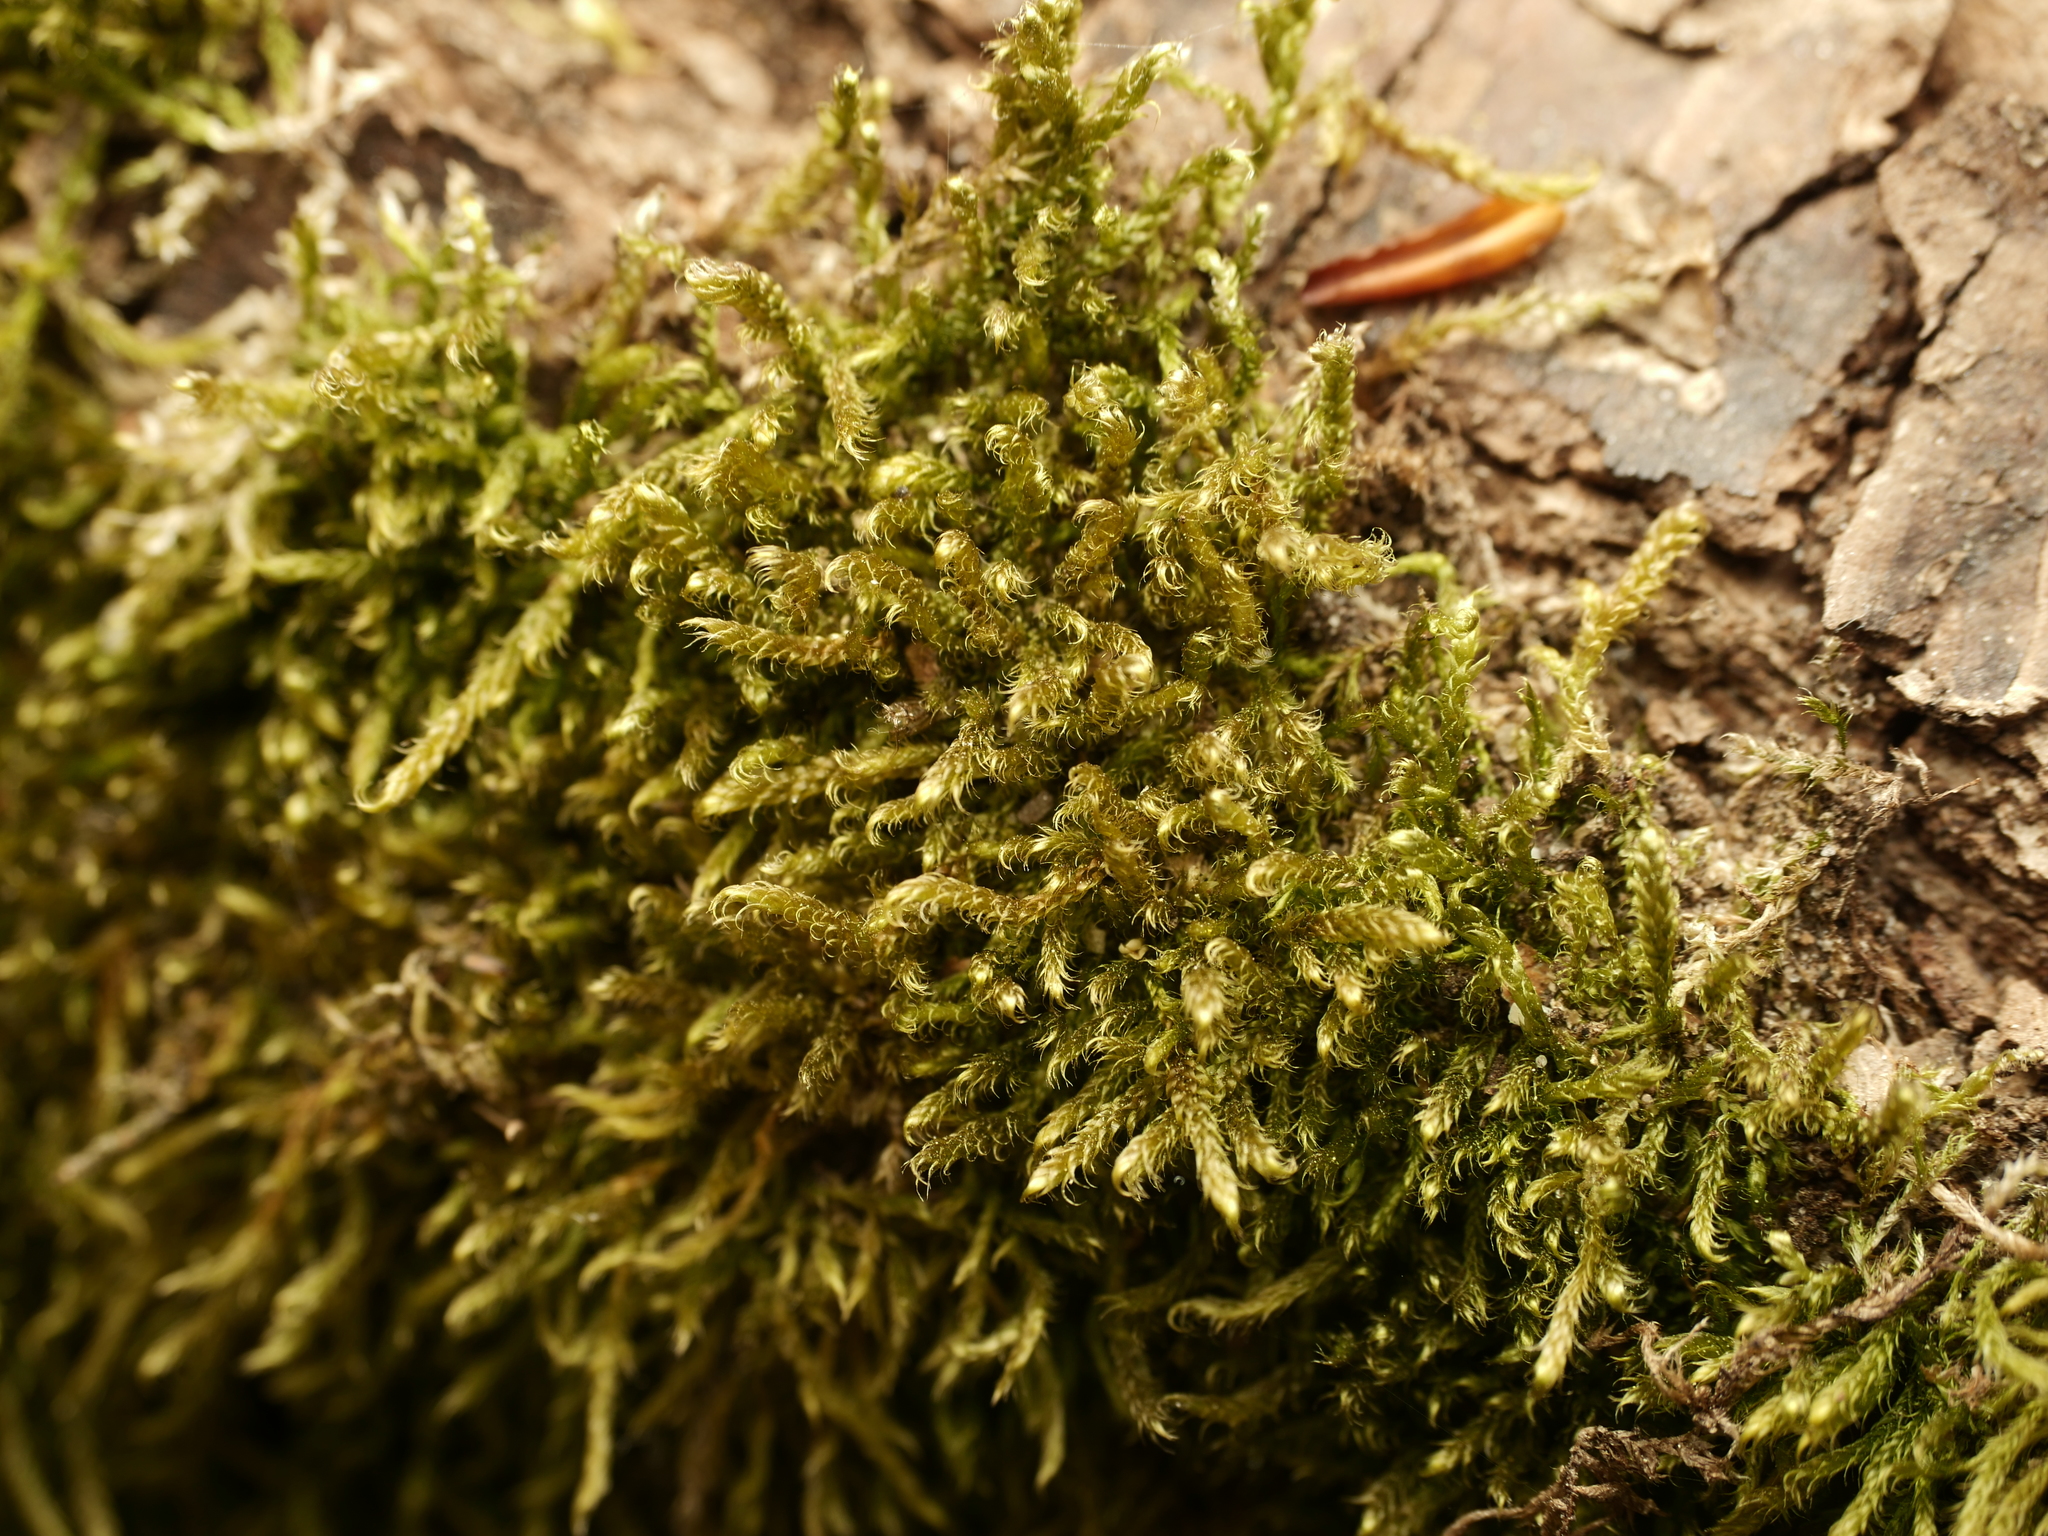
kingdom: Plantae
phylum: Bryophyta
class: Bryopsida
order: Hypnales
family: Hypnaceae
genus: Hypnum
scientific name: Hypnum cupressiforme
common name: Cypress-leaved plait-moss
